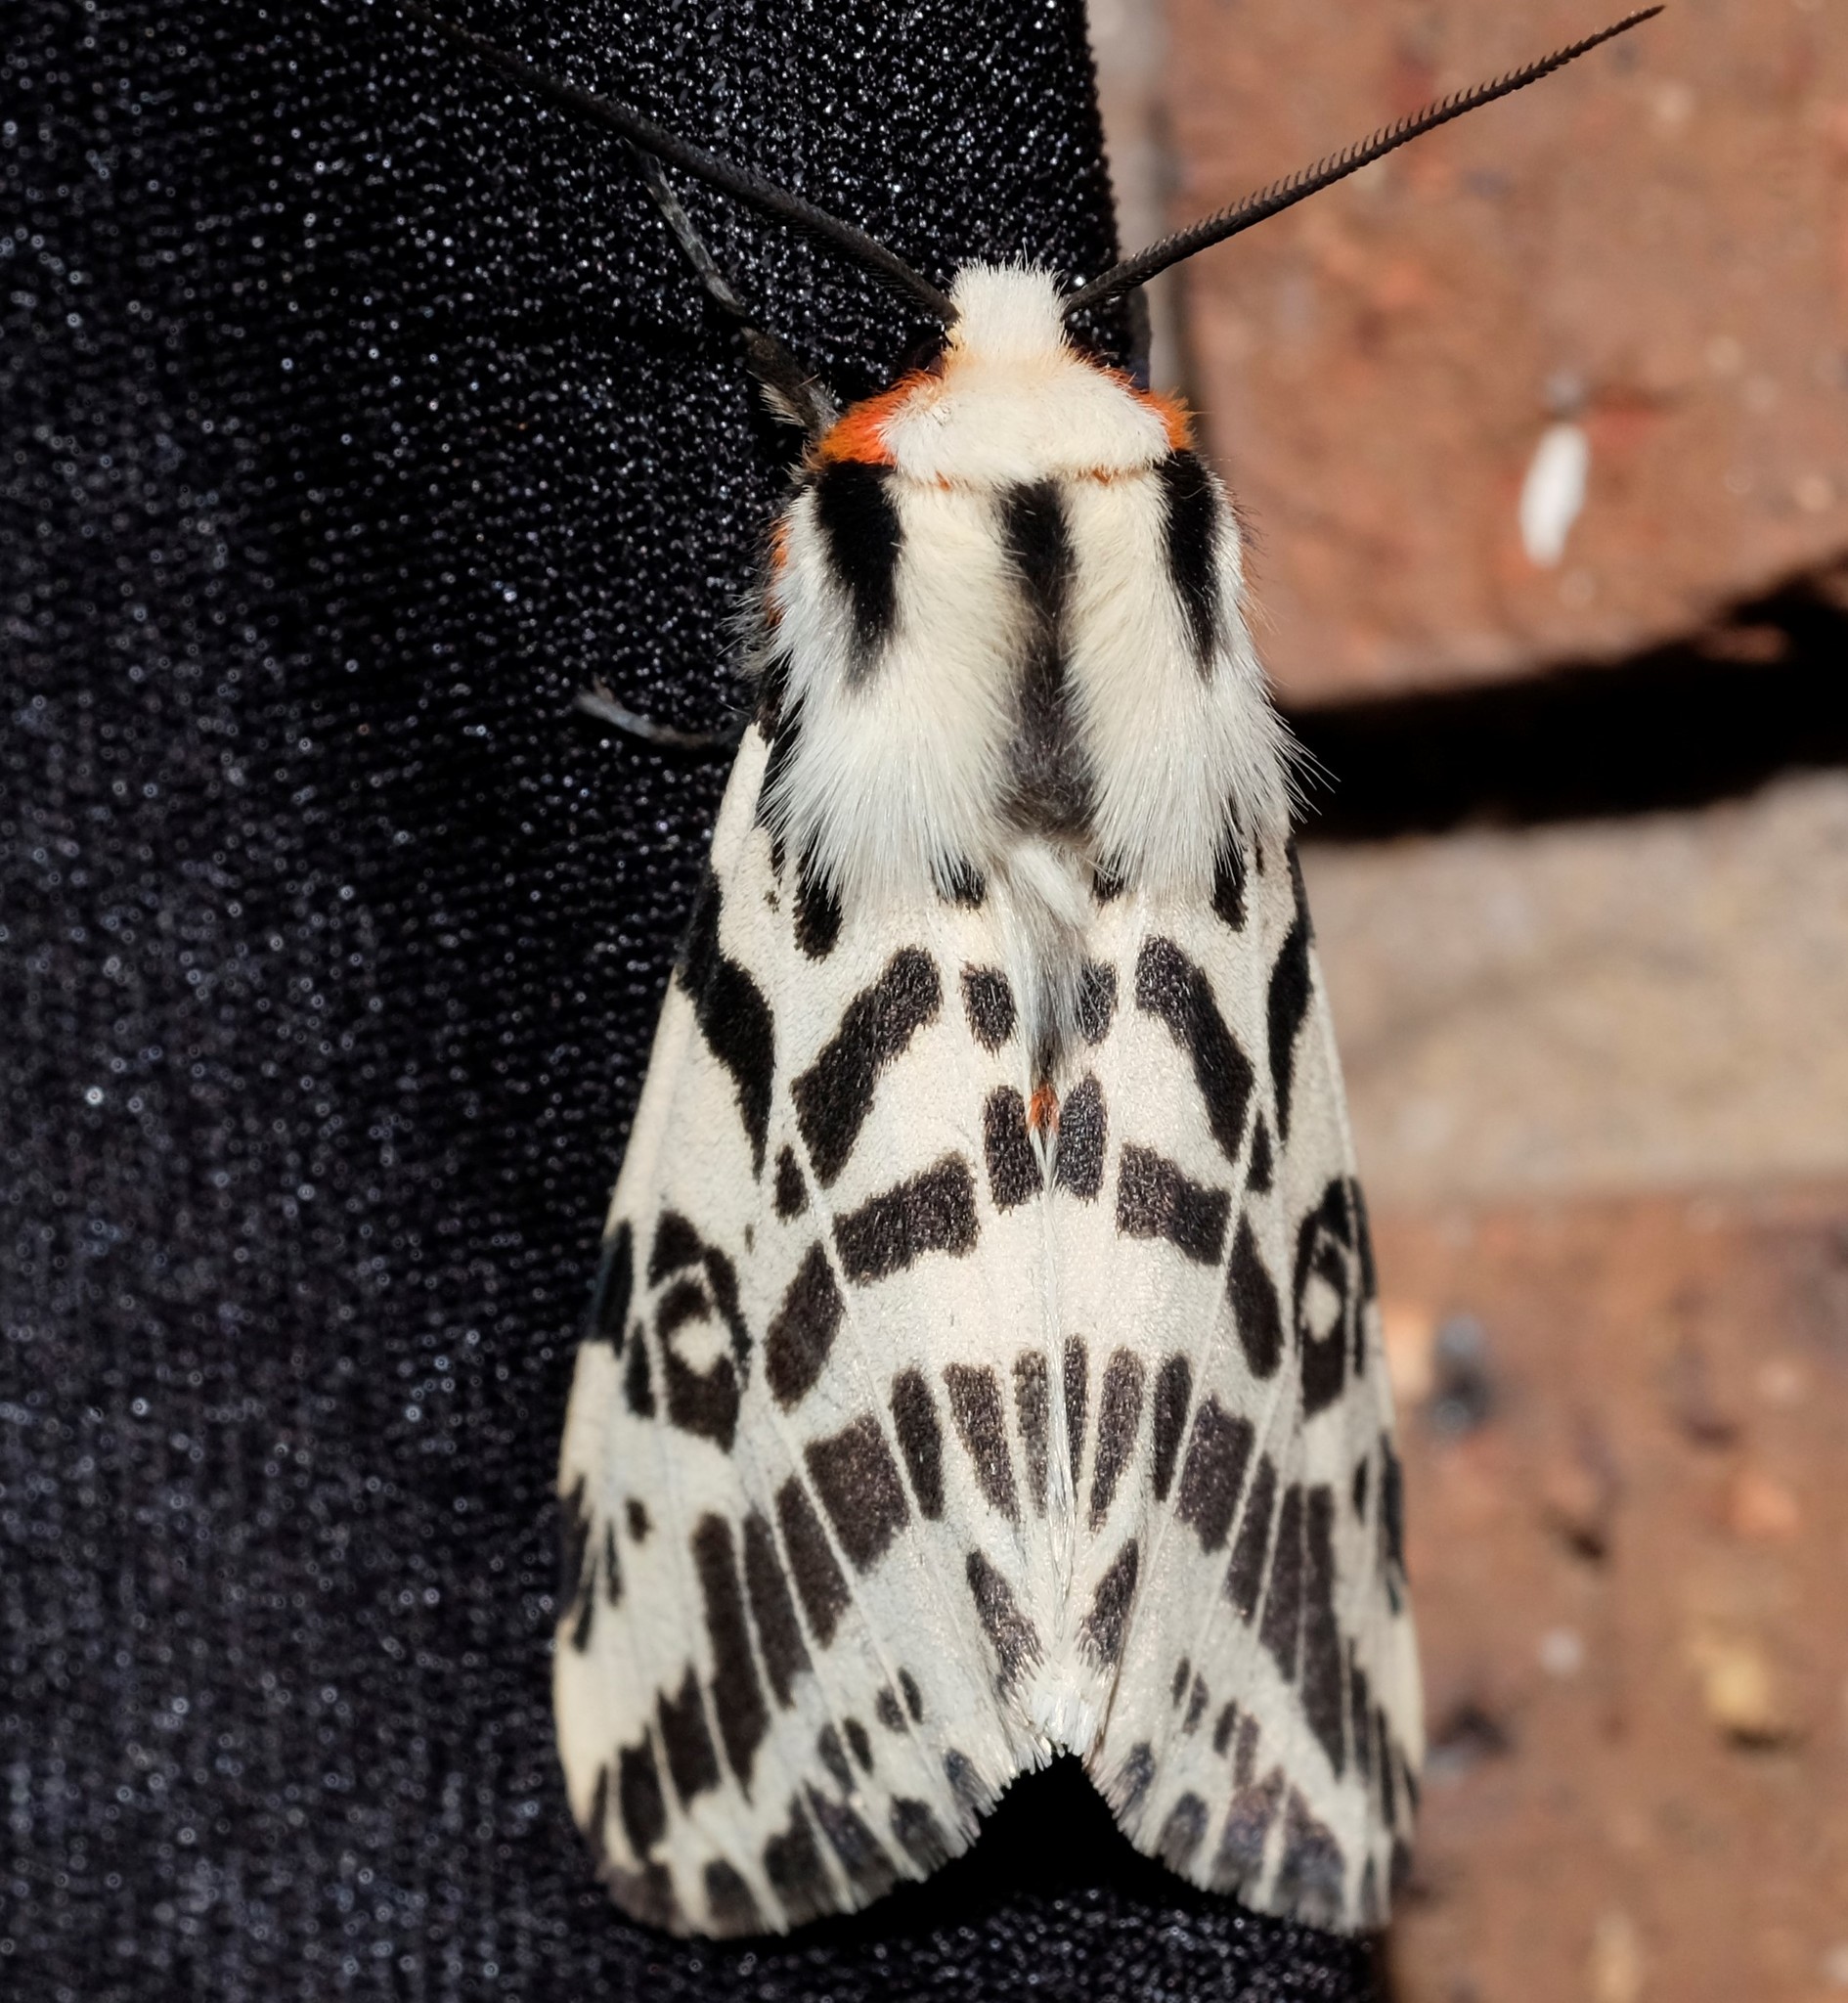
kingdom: Animalia
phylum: Arthropoda
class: Insecta
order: Lepidoptera
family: Erebidae
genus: Ardices
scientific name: Ardices glatignyi
